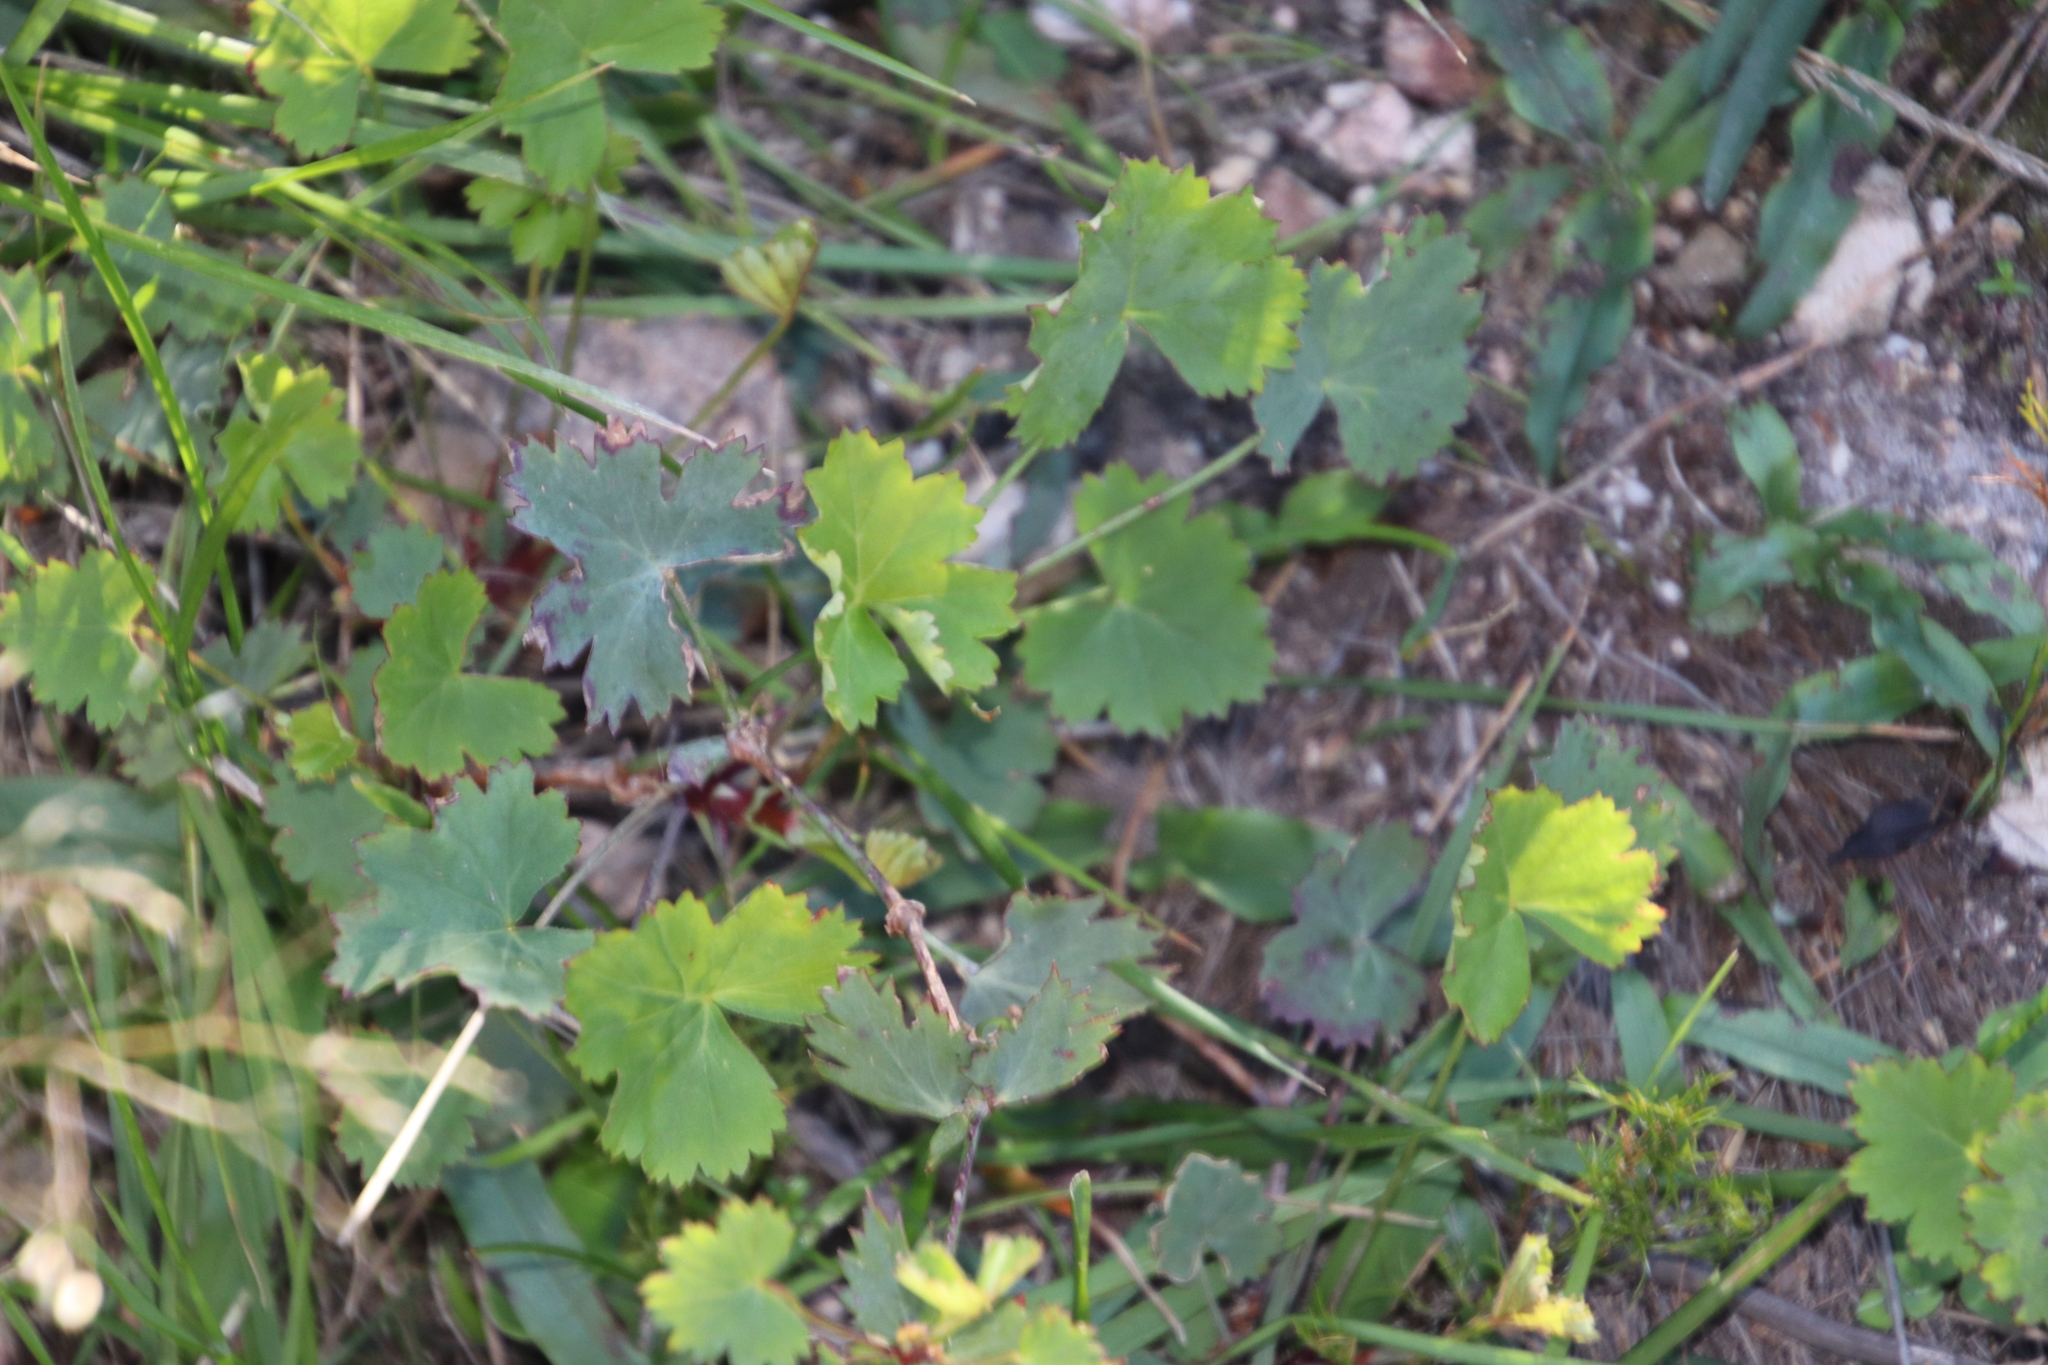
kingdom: Plantae
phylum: Tracheophyta
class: Magnoliopsida
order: Geraniales
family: Geraniaceae
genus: Pelargonium
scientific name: Pelargonium patulum
